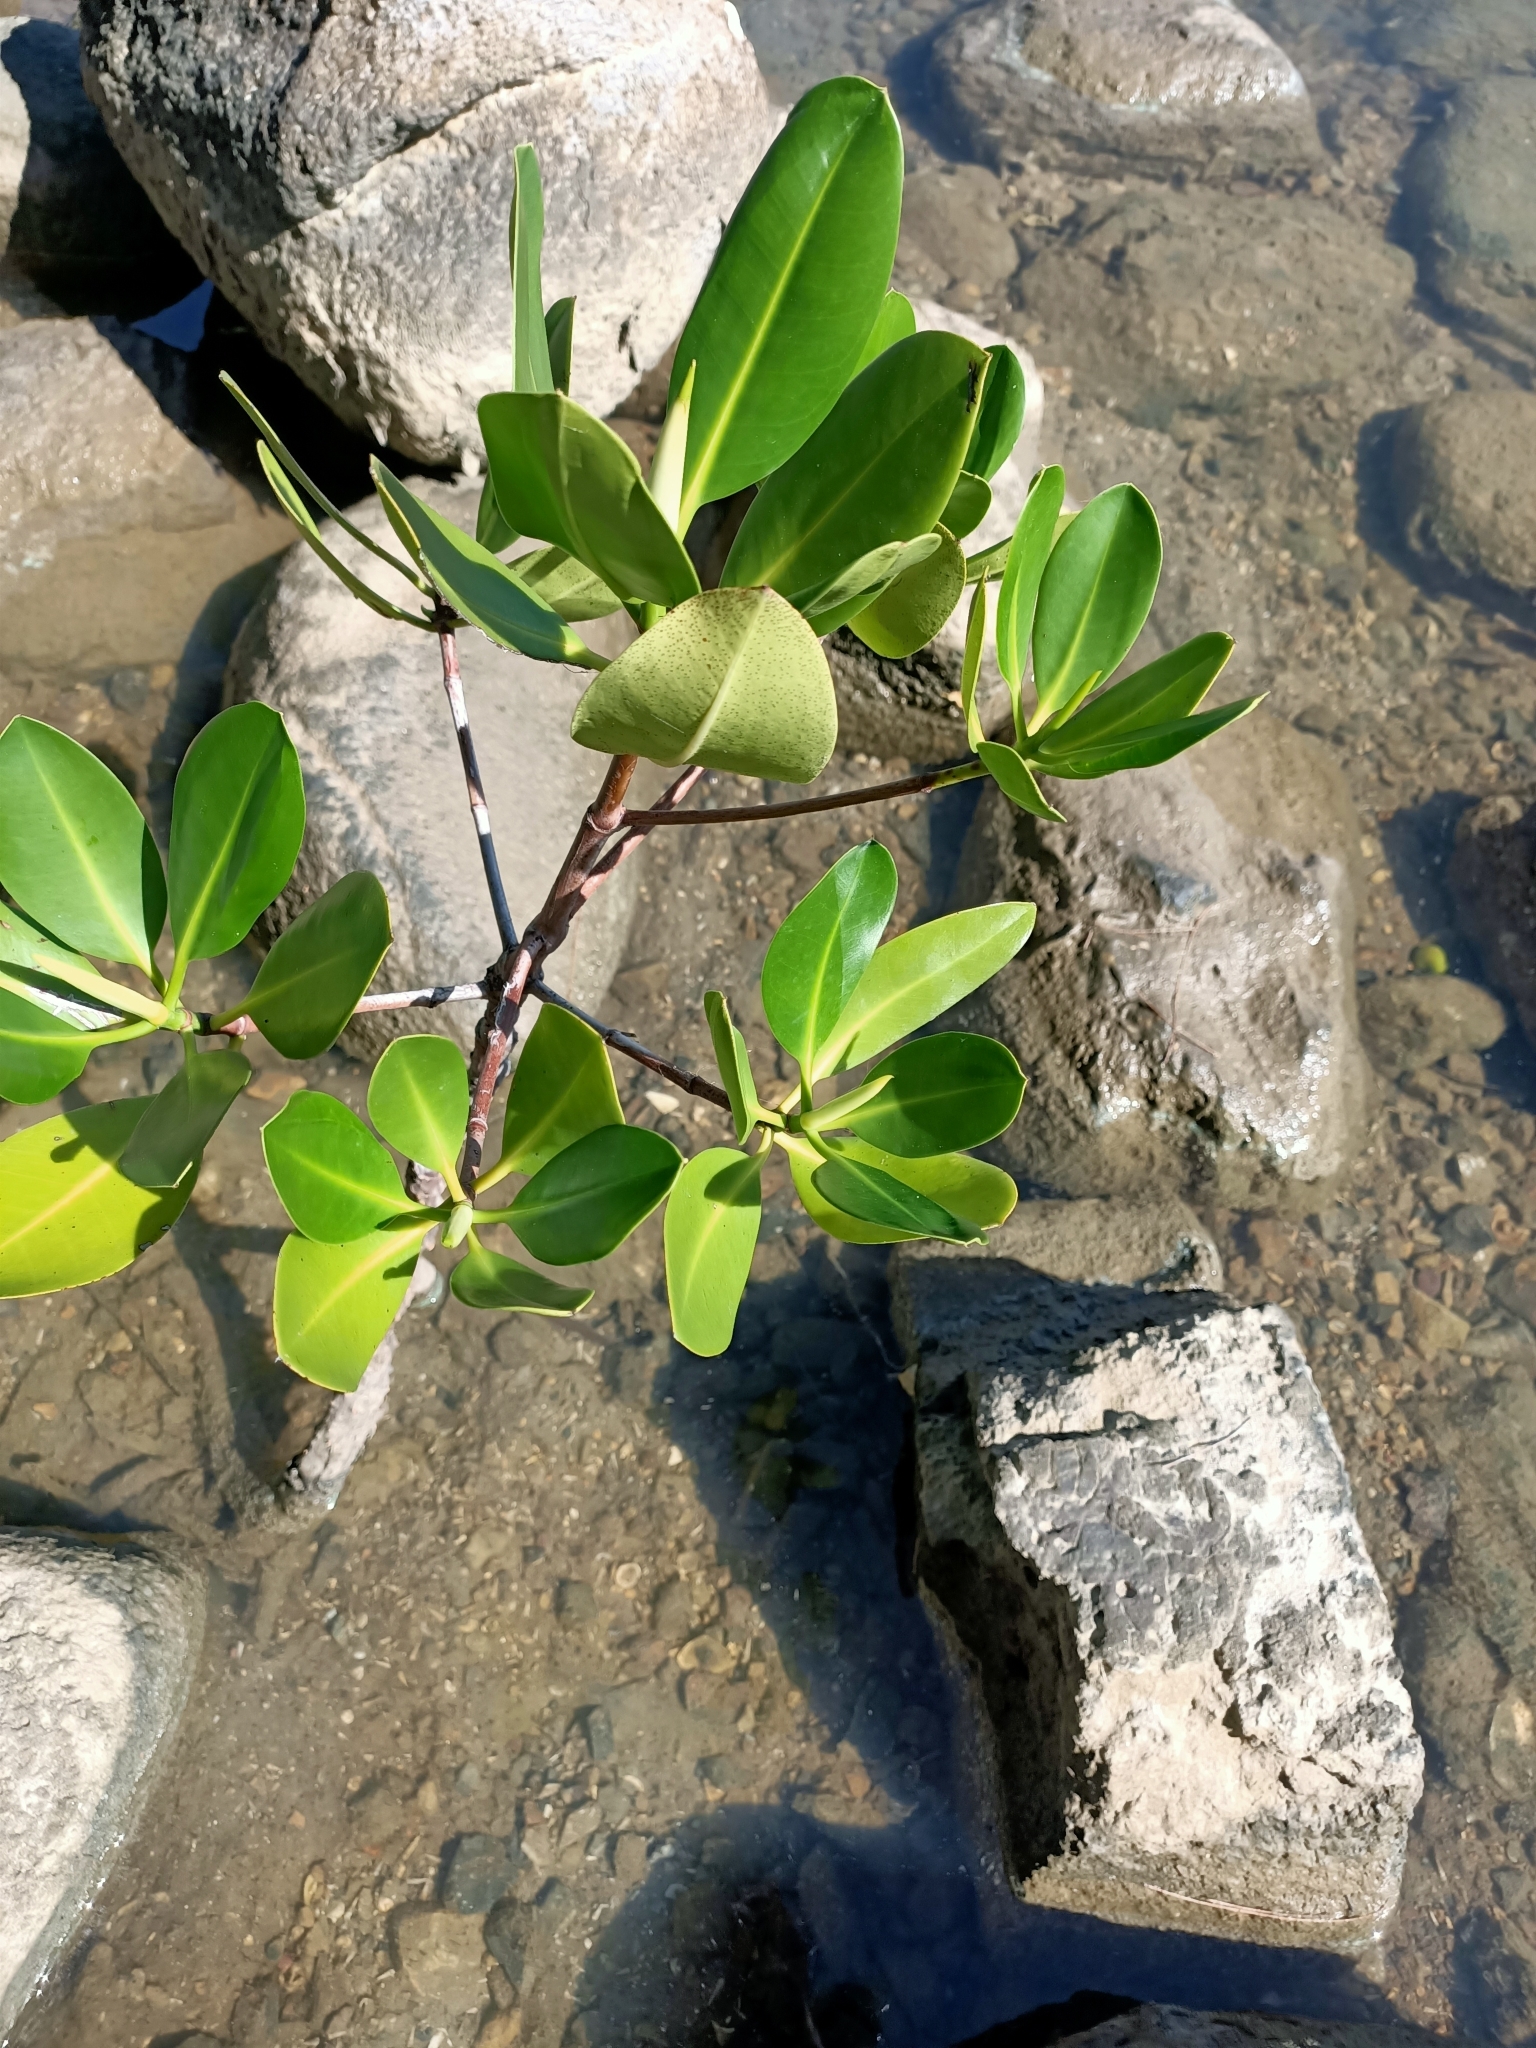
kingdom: Plantae
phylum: Tracheophyta
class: Magnoliopsida
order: Malpighiales
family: Rhizophoraceae
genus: Rhizophora
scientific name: Rhizophora stylosa
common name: Red mangrove
